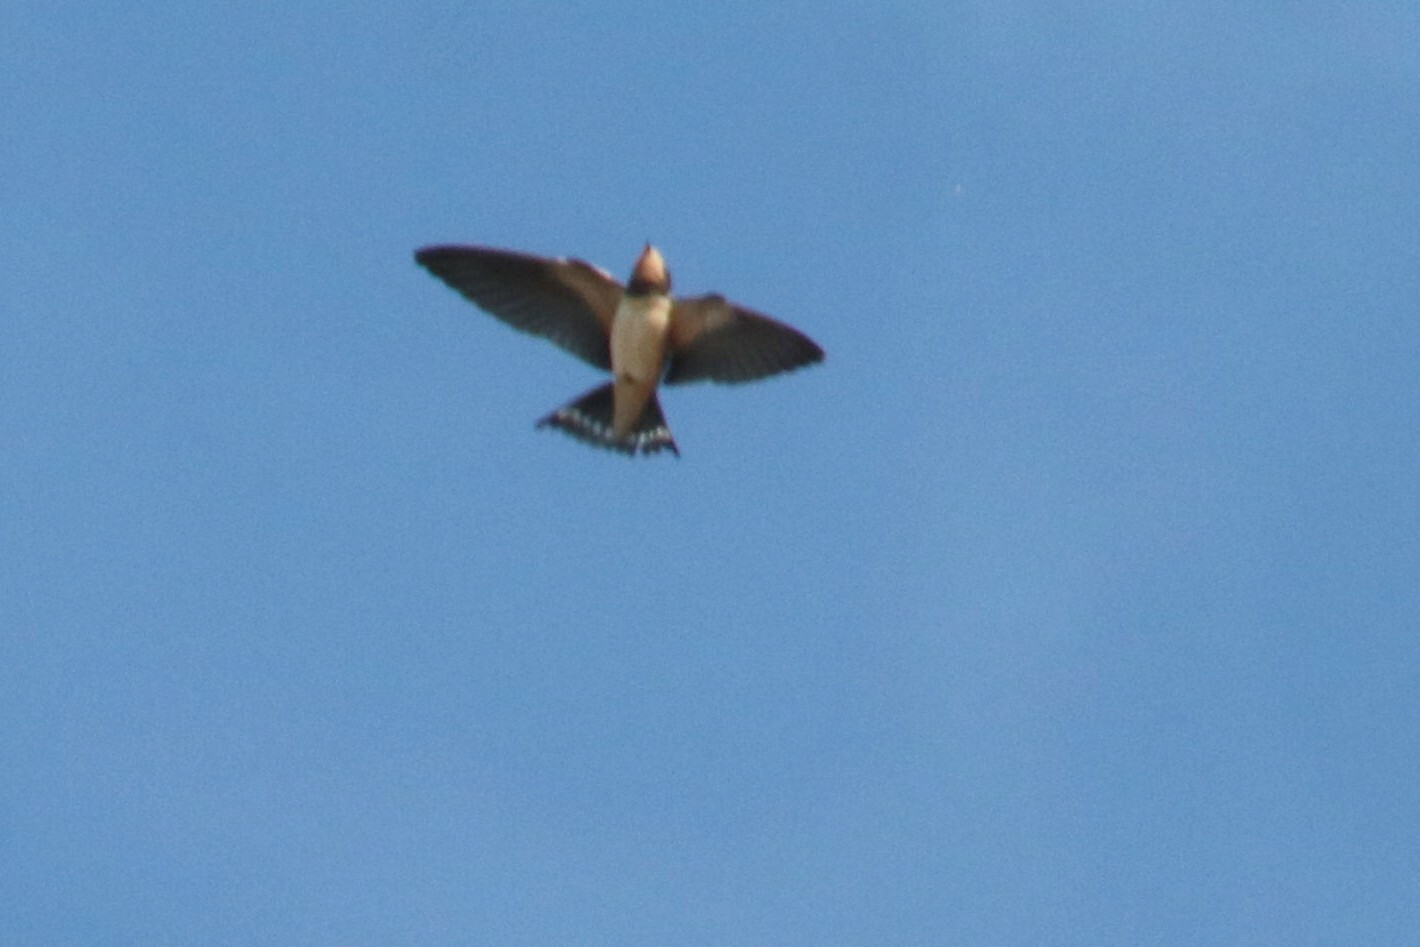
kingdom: Animalia
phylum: Chordata
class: Aves
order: Passeriformes
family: Hirundinidae
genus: Hirundo
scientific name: Hirundo rustica
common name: Barn swallow
